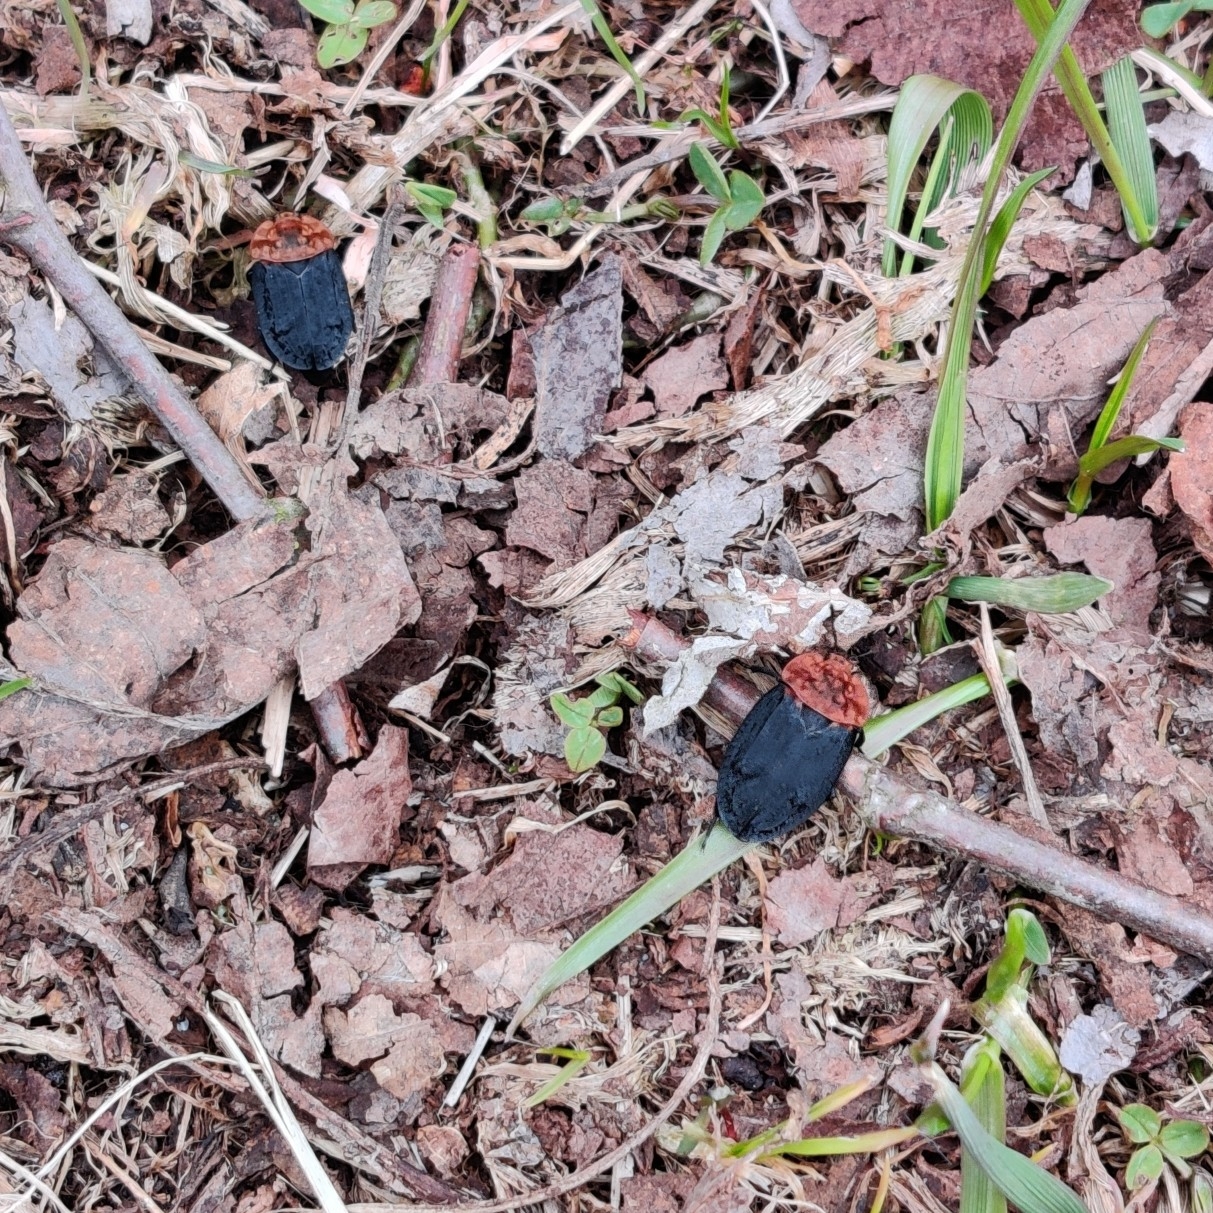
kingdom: Animalia
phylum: Arthropoda
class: Insecta
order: Coleoptera
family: Staphylinidae
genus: Oiceoptoma
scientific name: Oiceoptoma thoracicum
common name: Red-breasted carrion beetle
